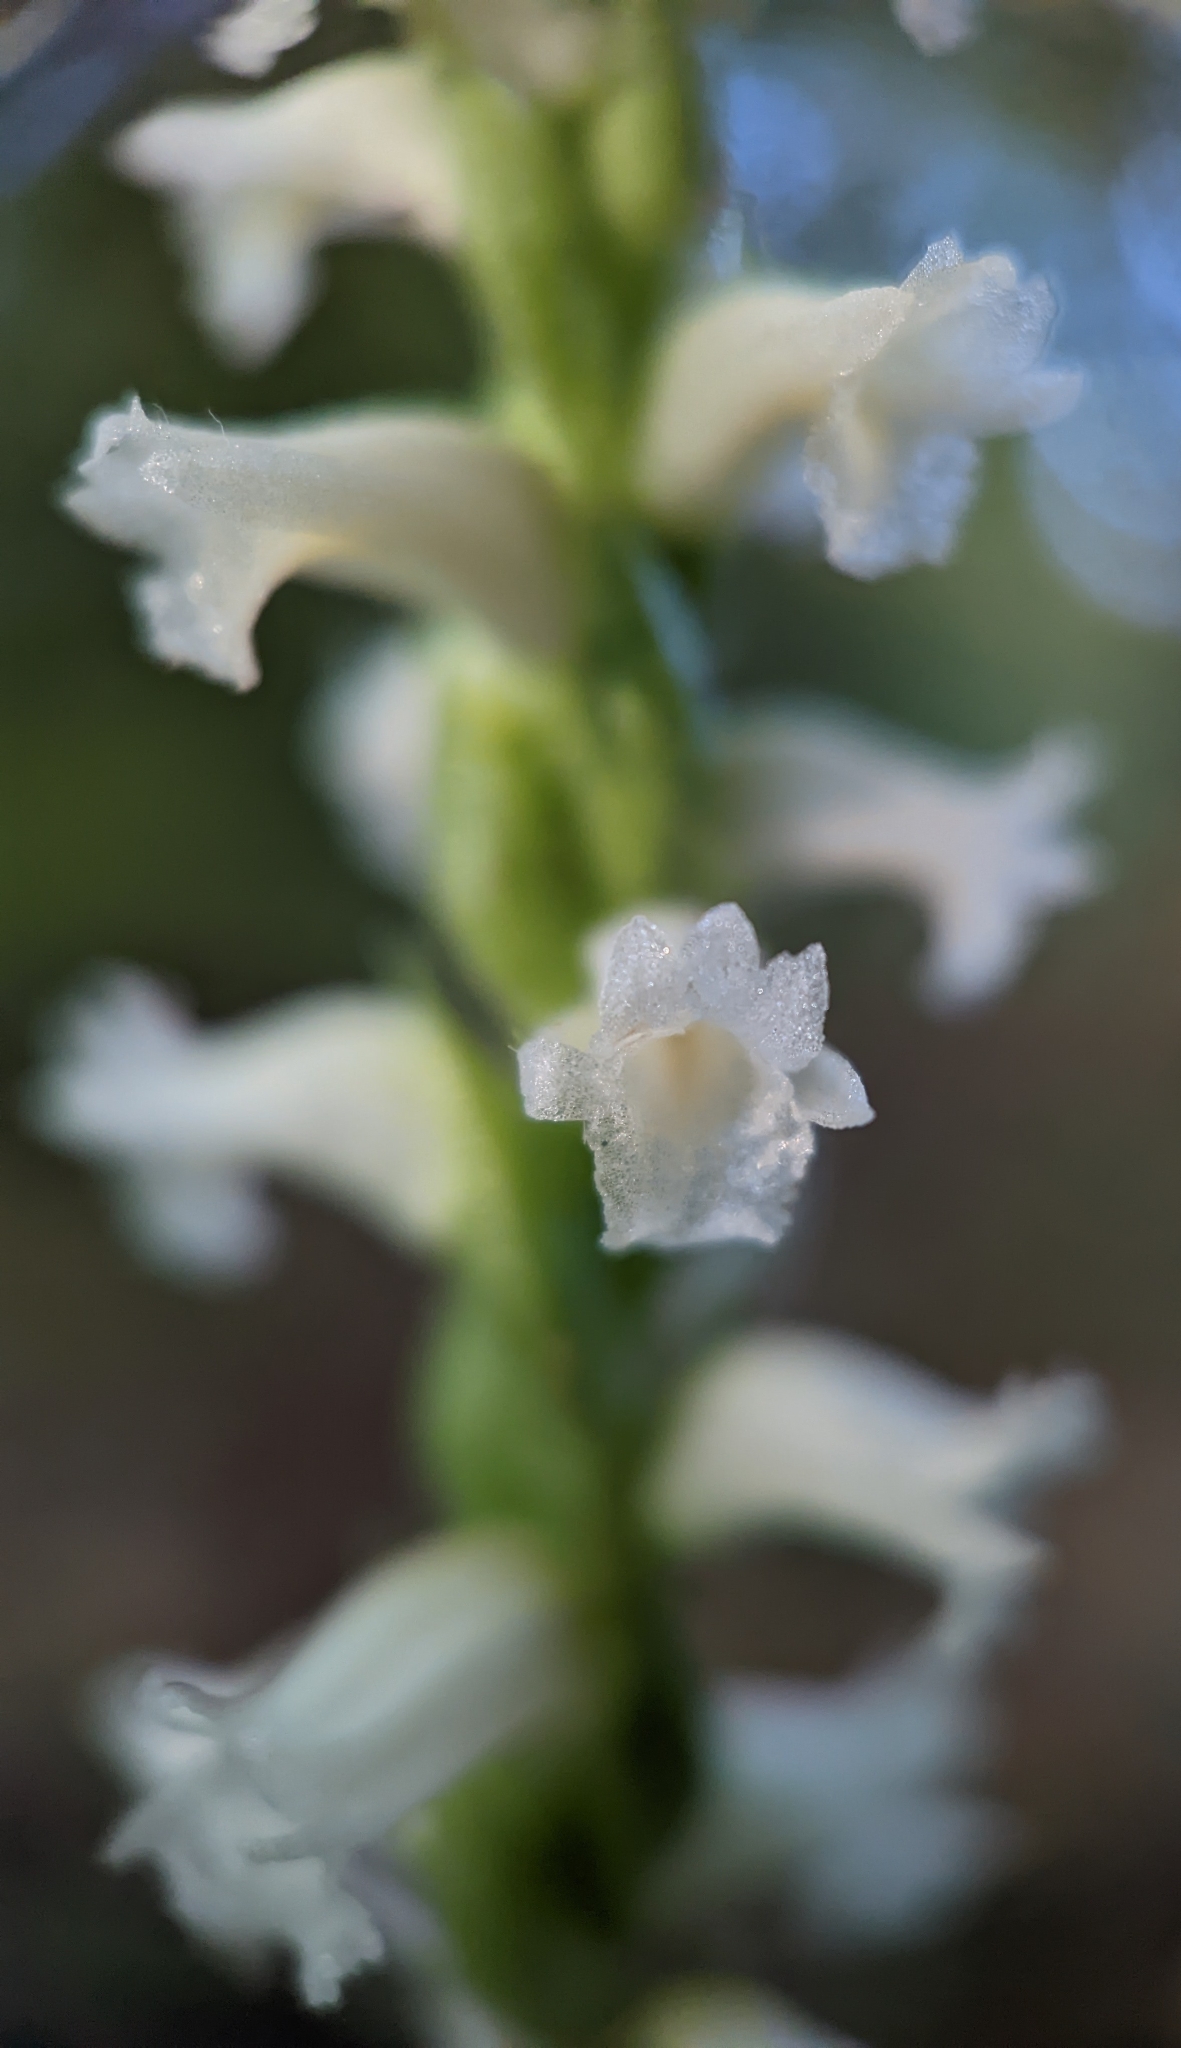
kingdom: Plantae
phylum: Tracheophyta
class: Liliopsida
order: Asparagales
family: Orchidaceae
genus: Spiranthes
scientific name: Spiranthes ochroleuca
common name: Yellow ladies'-tresses
